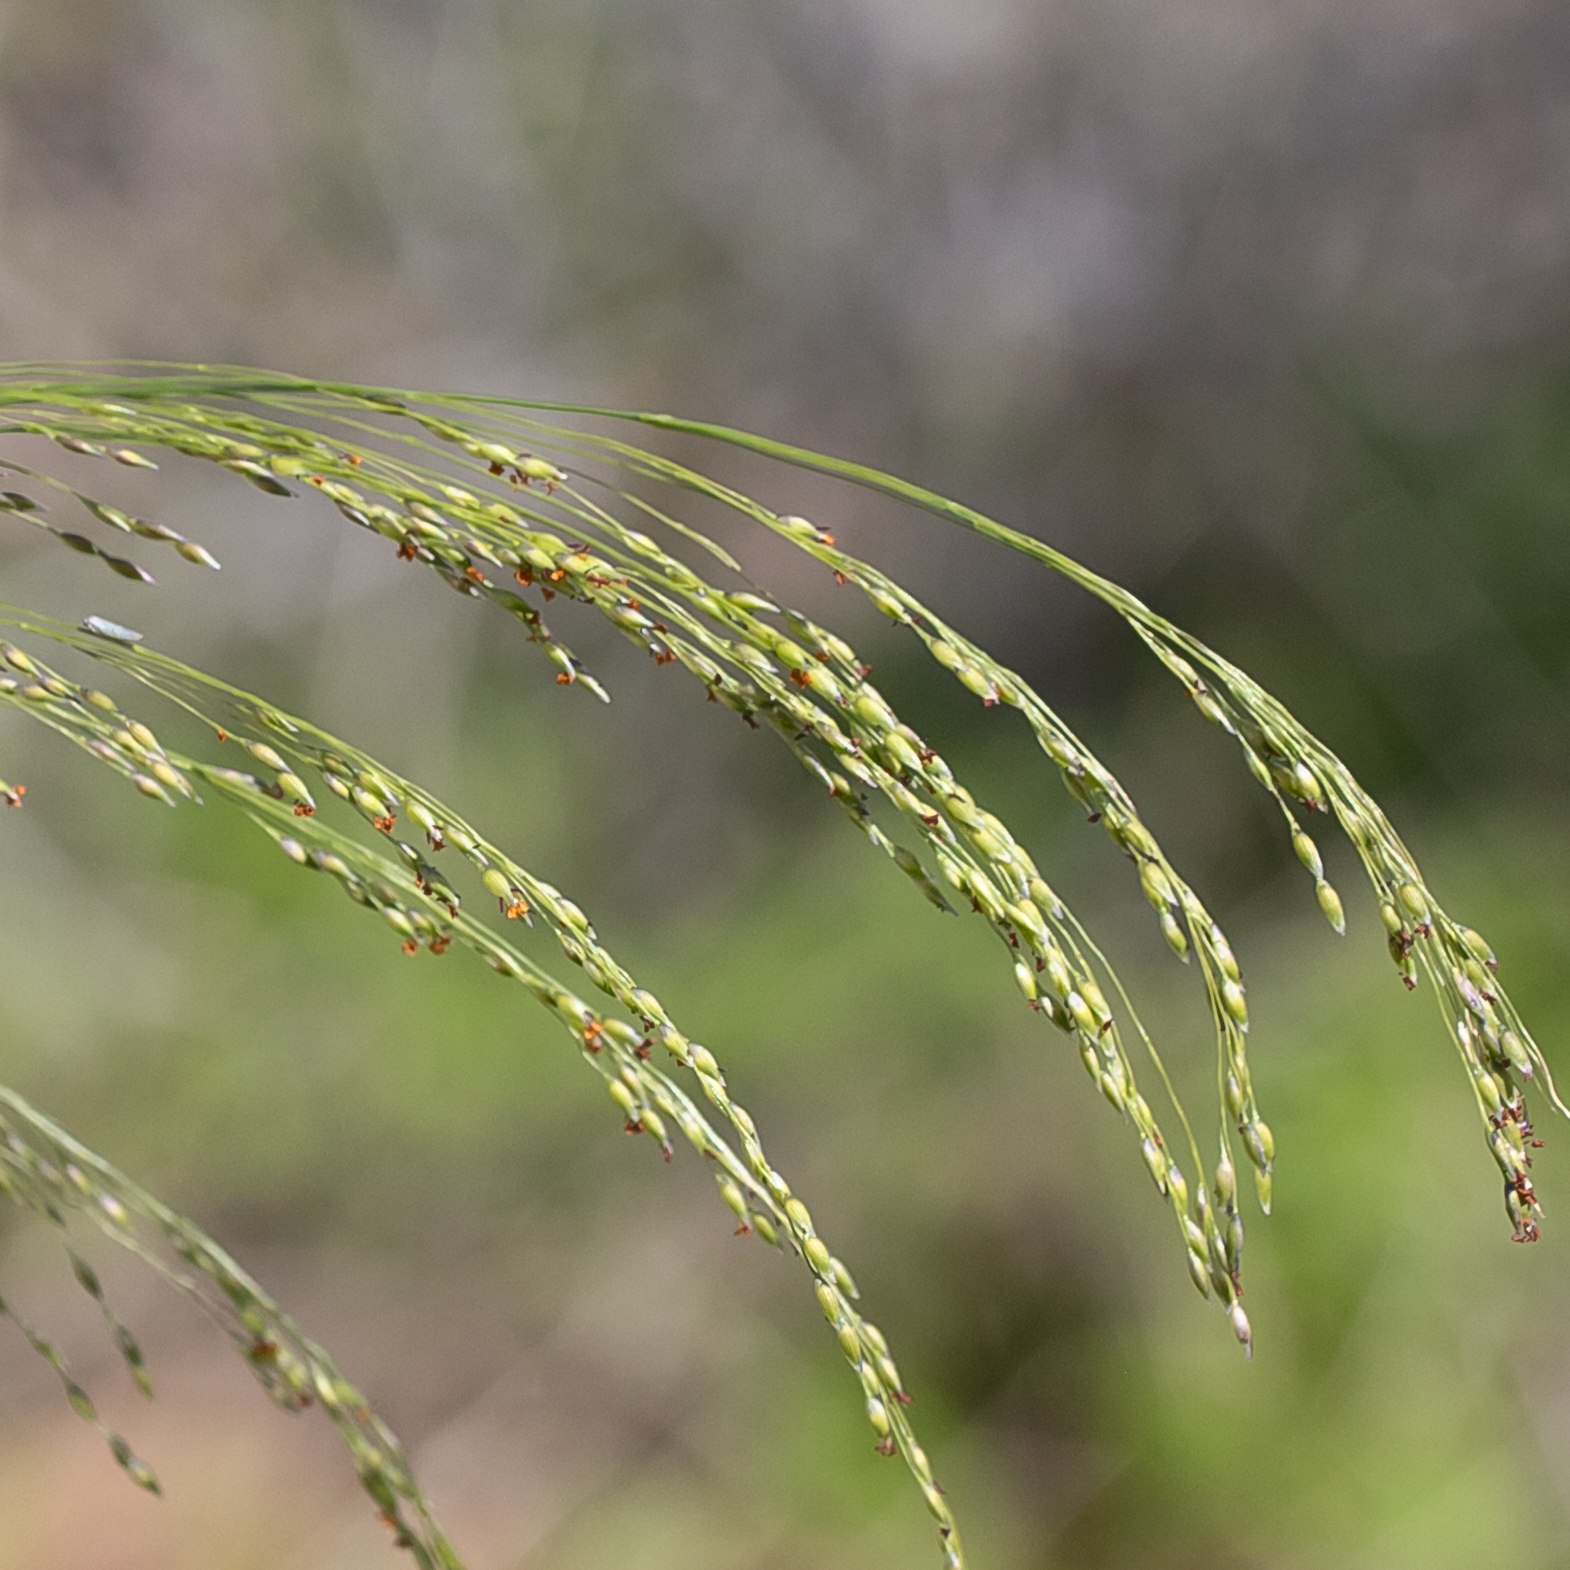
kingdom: Plantae
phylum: Tracheophyta
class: Liliopsida
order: Poales
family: Poaceae
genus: Panicum
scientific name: Panicum laevinode
